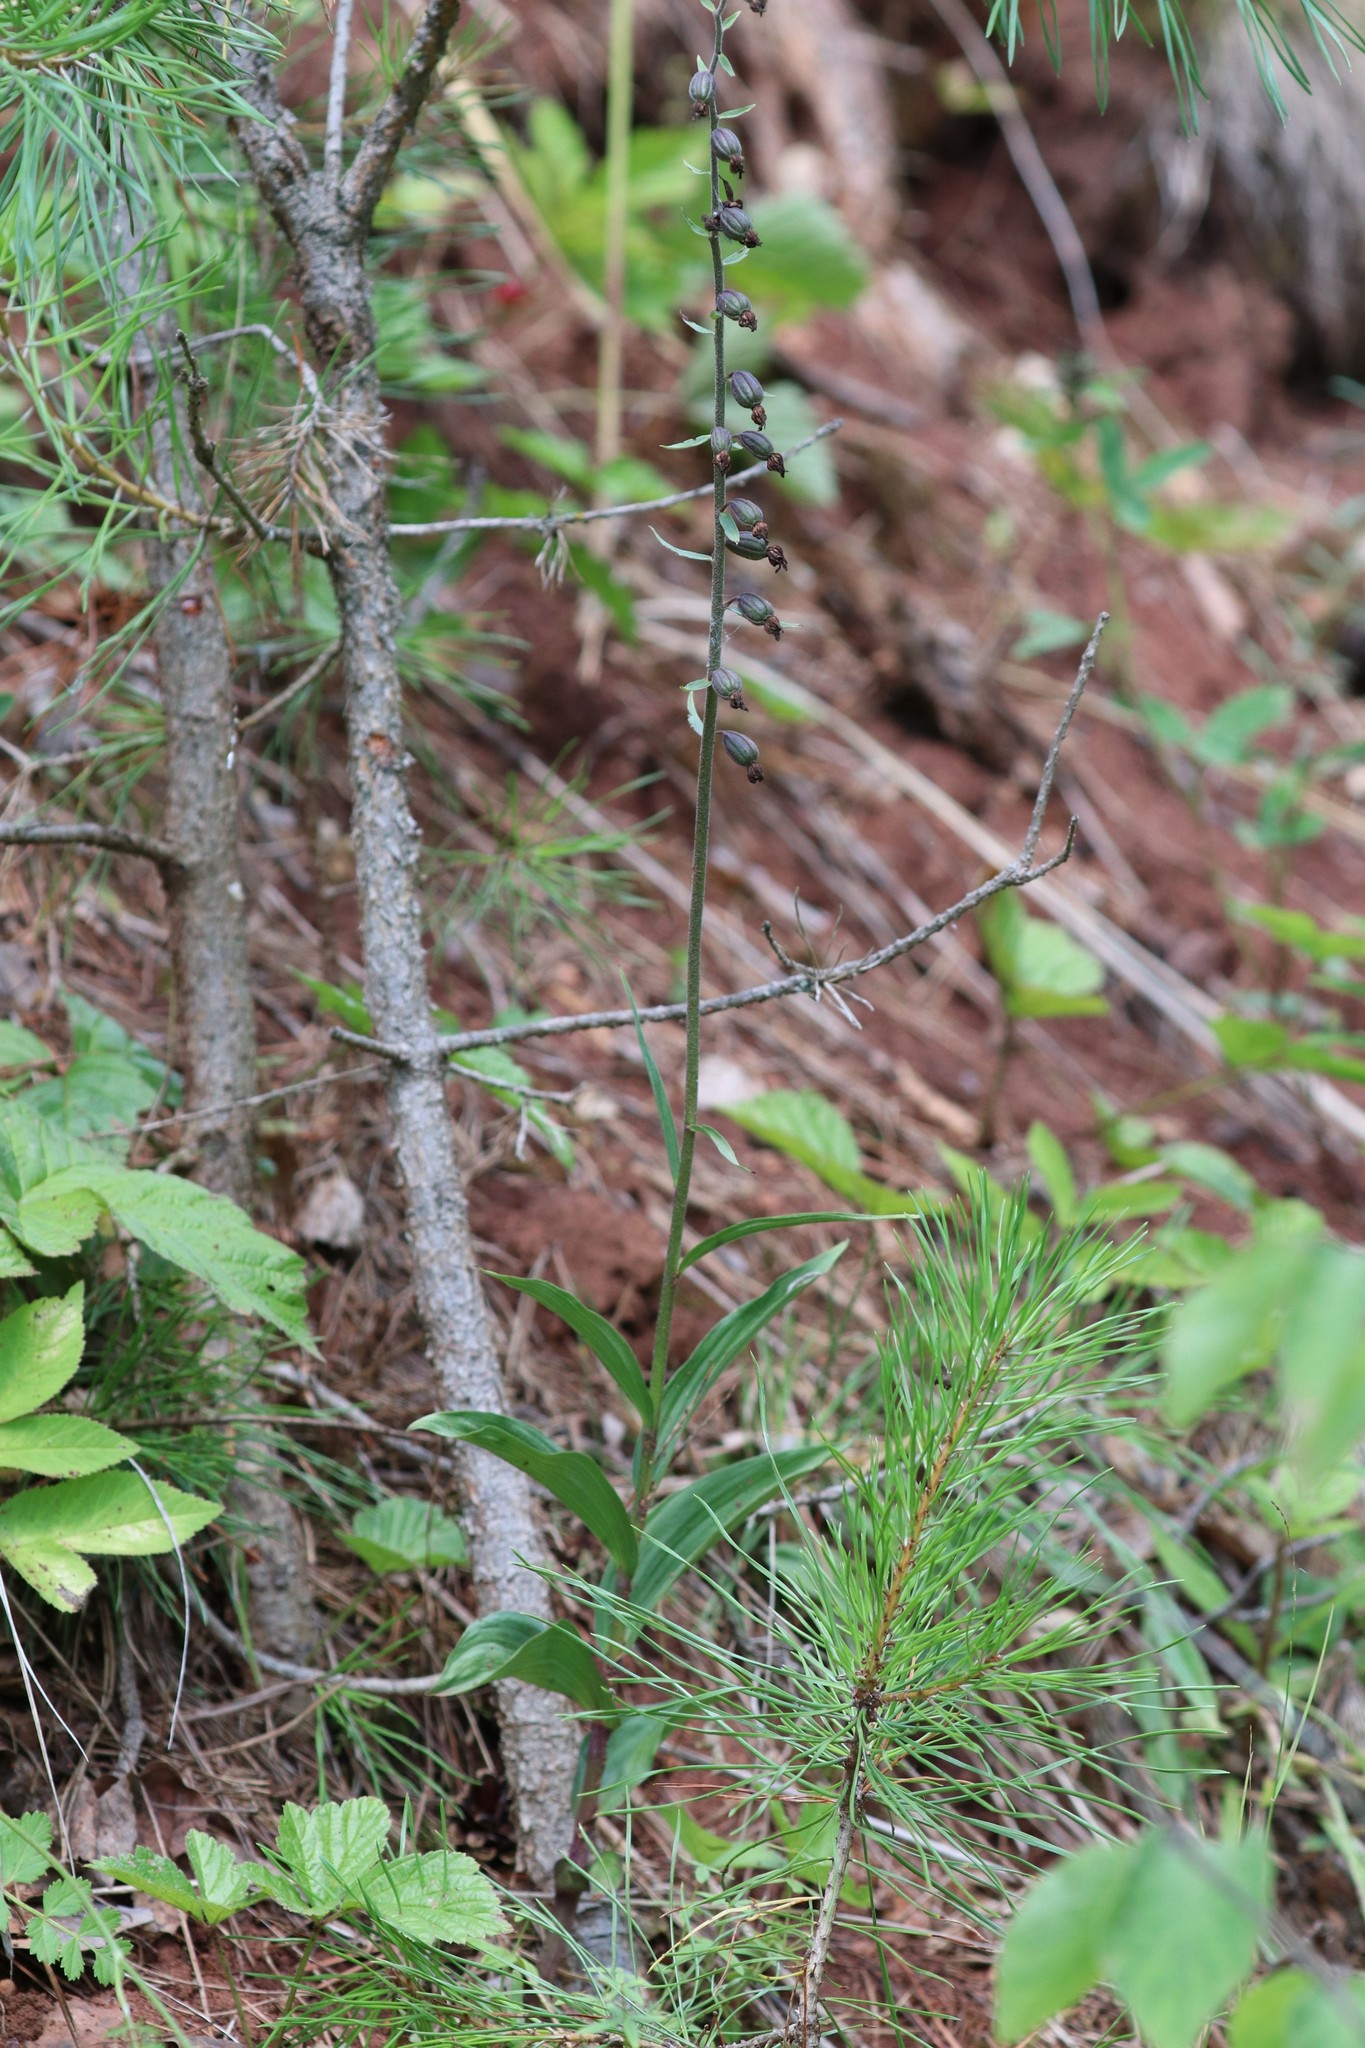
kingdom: Plantae
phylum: Tracheophyta
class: Liliopsida
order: Asparagales
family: Orchidaceae
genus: Epipactis
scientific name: Epipactis atrorubens
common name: Dark-red helleborine
